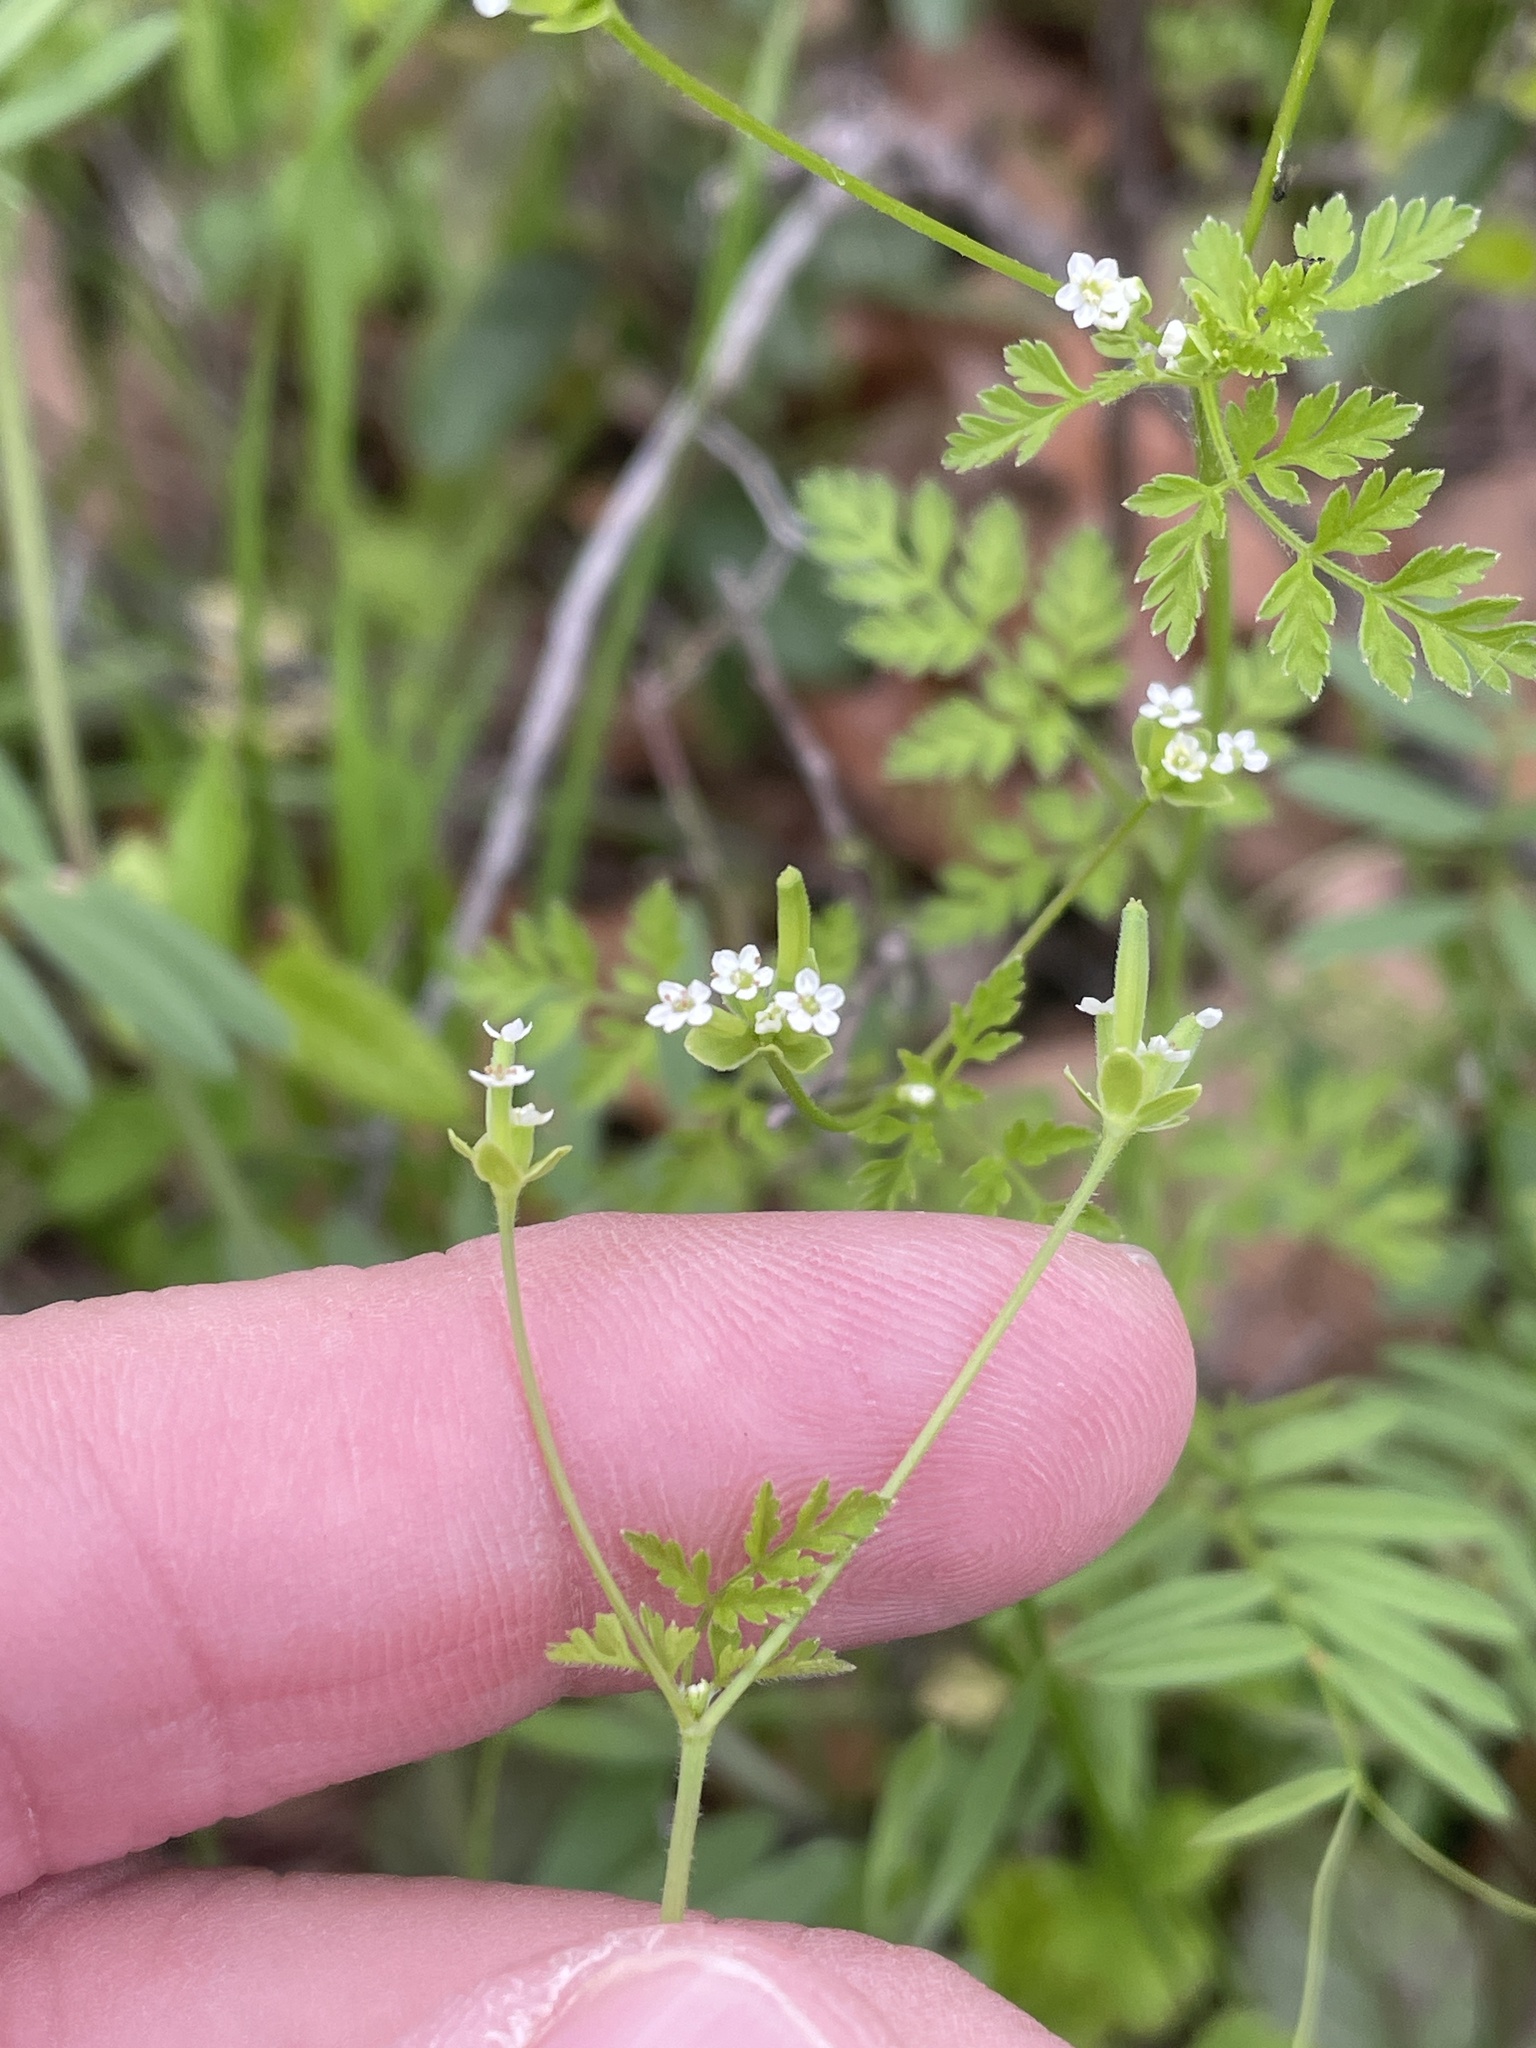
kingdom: Plantae
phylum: Tracheophyta
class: Magnoliopsida
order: Apiales
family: Apiaceae
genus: Chaerophyllum
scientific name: Chaerophyllum tainturieri
